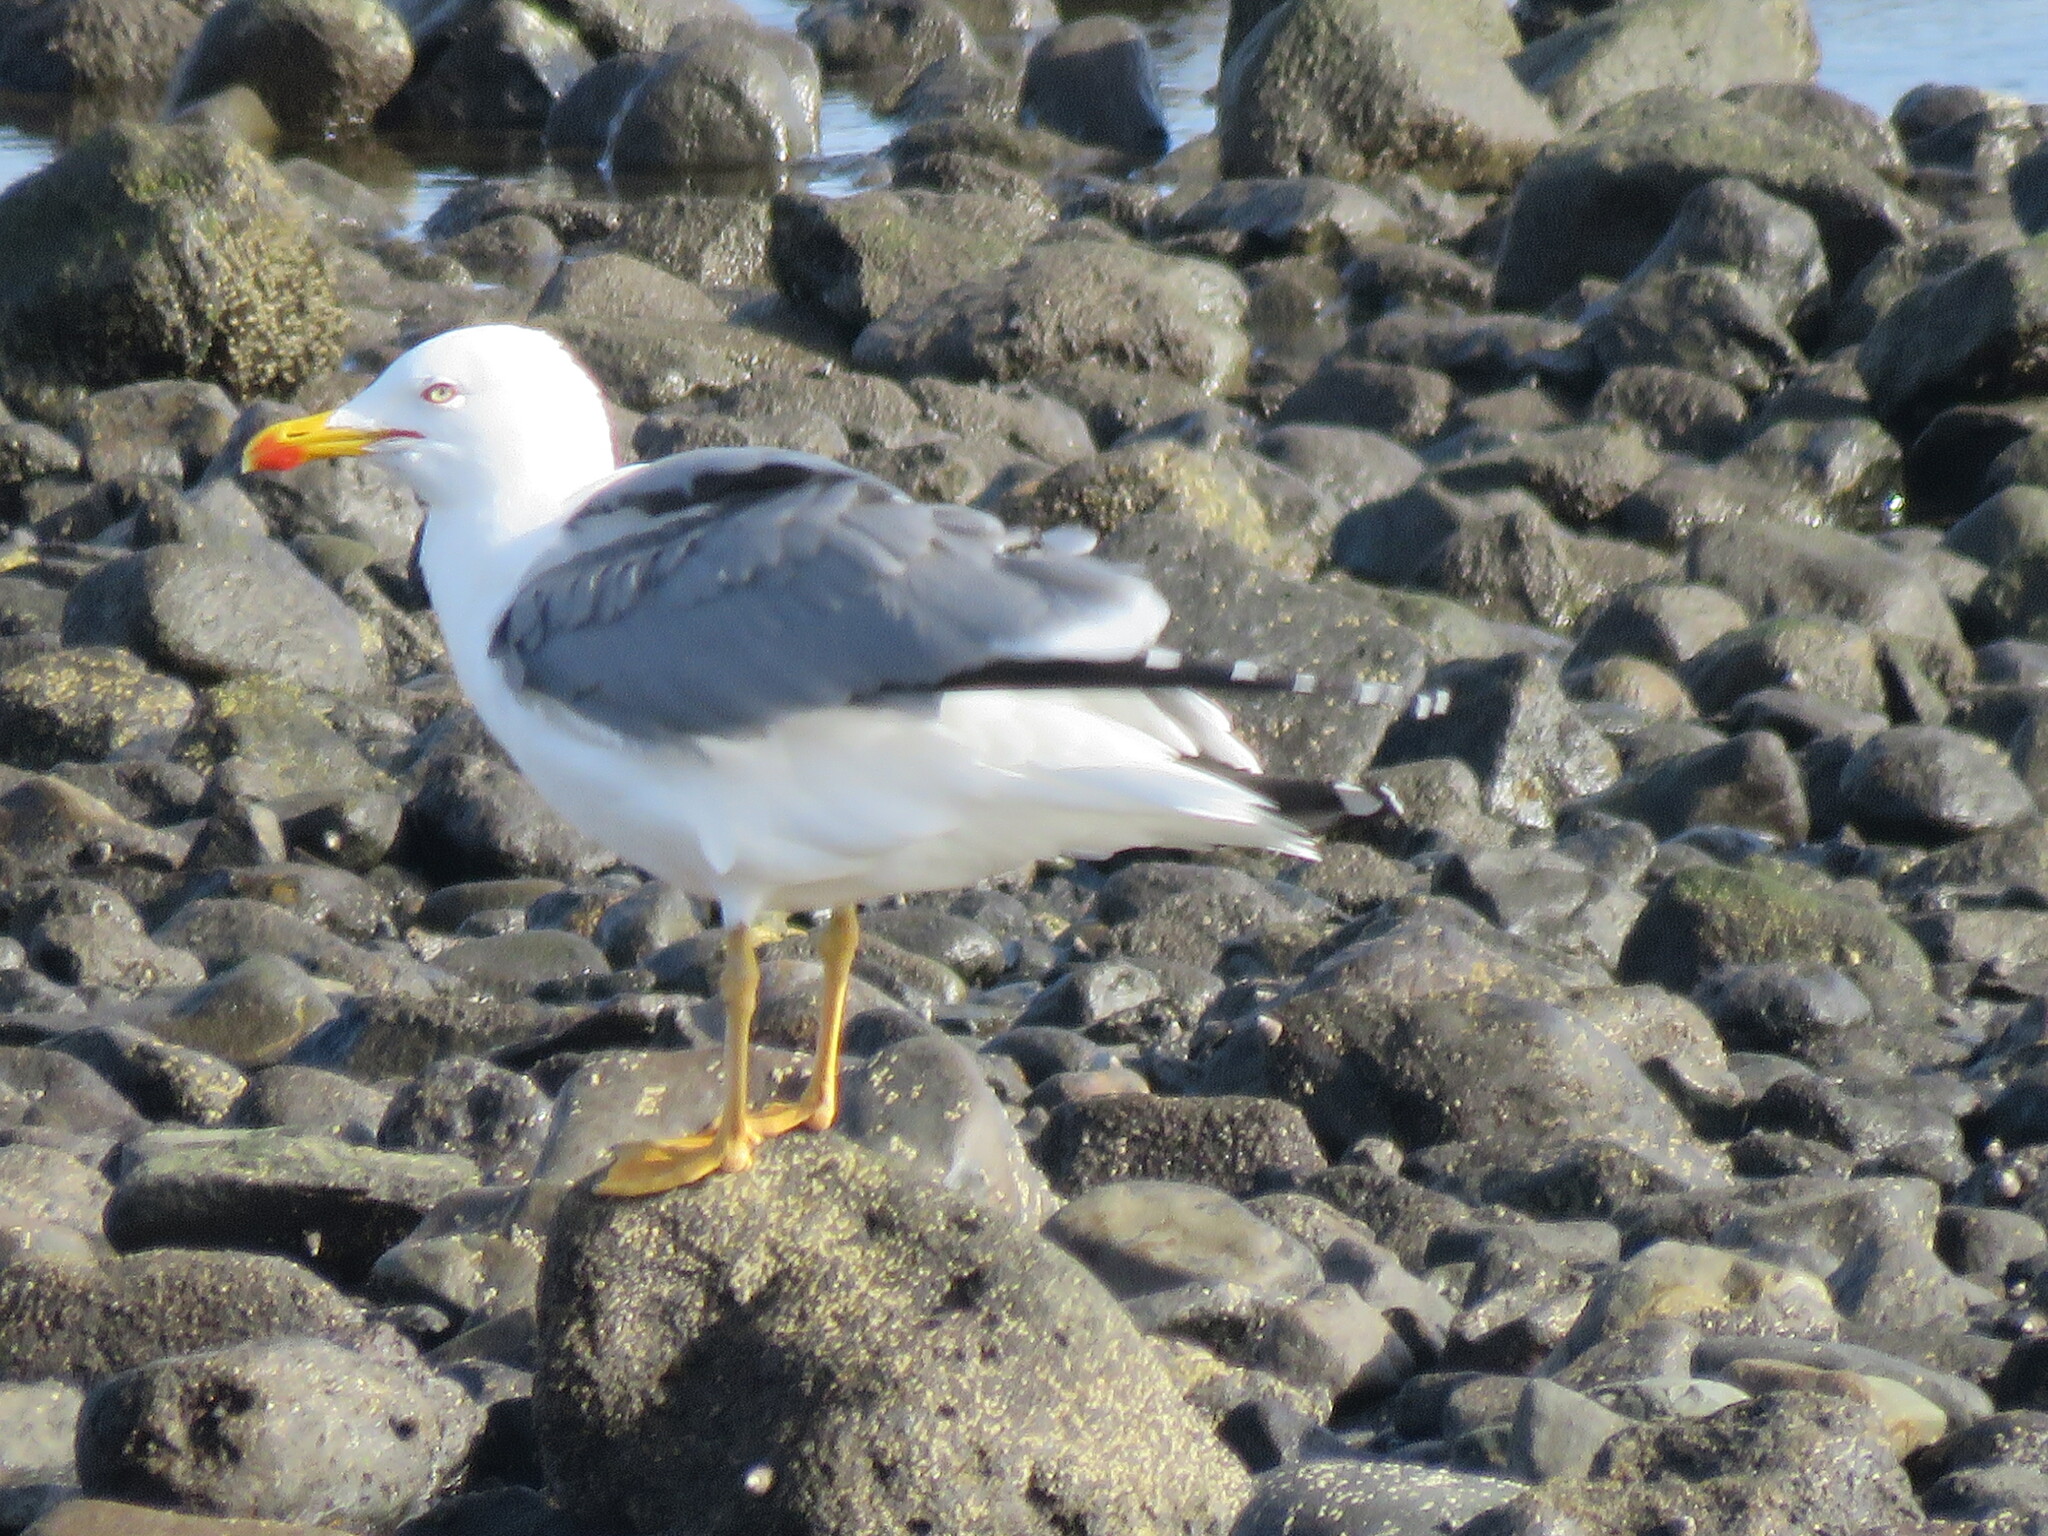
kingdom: Animalia
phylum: Chordata
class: Aves
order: Charadriiformes
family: Laridae
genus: Larus
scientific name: Larus michahellis
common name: Yellow-legged gull
